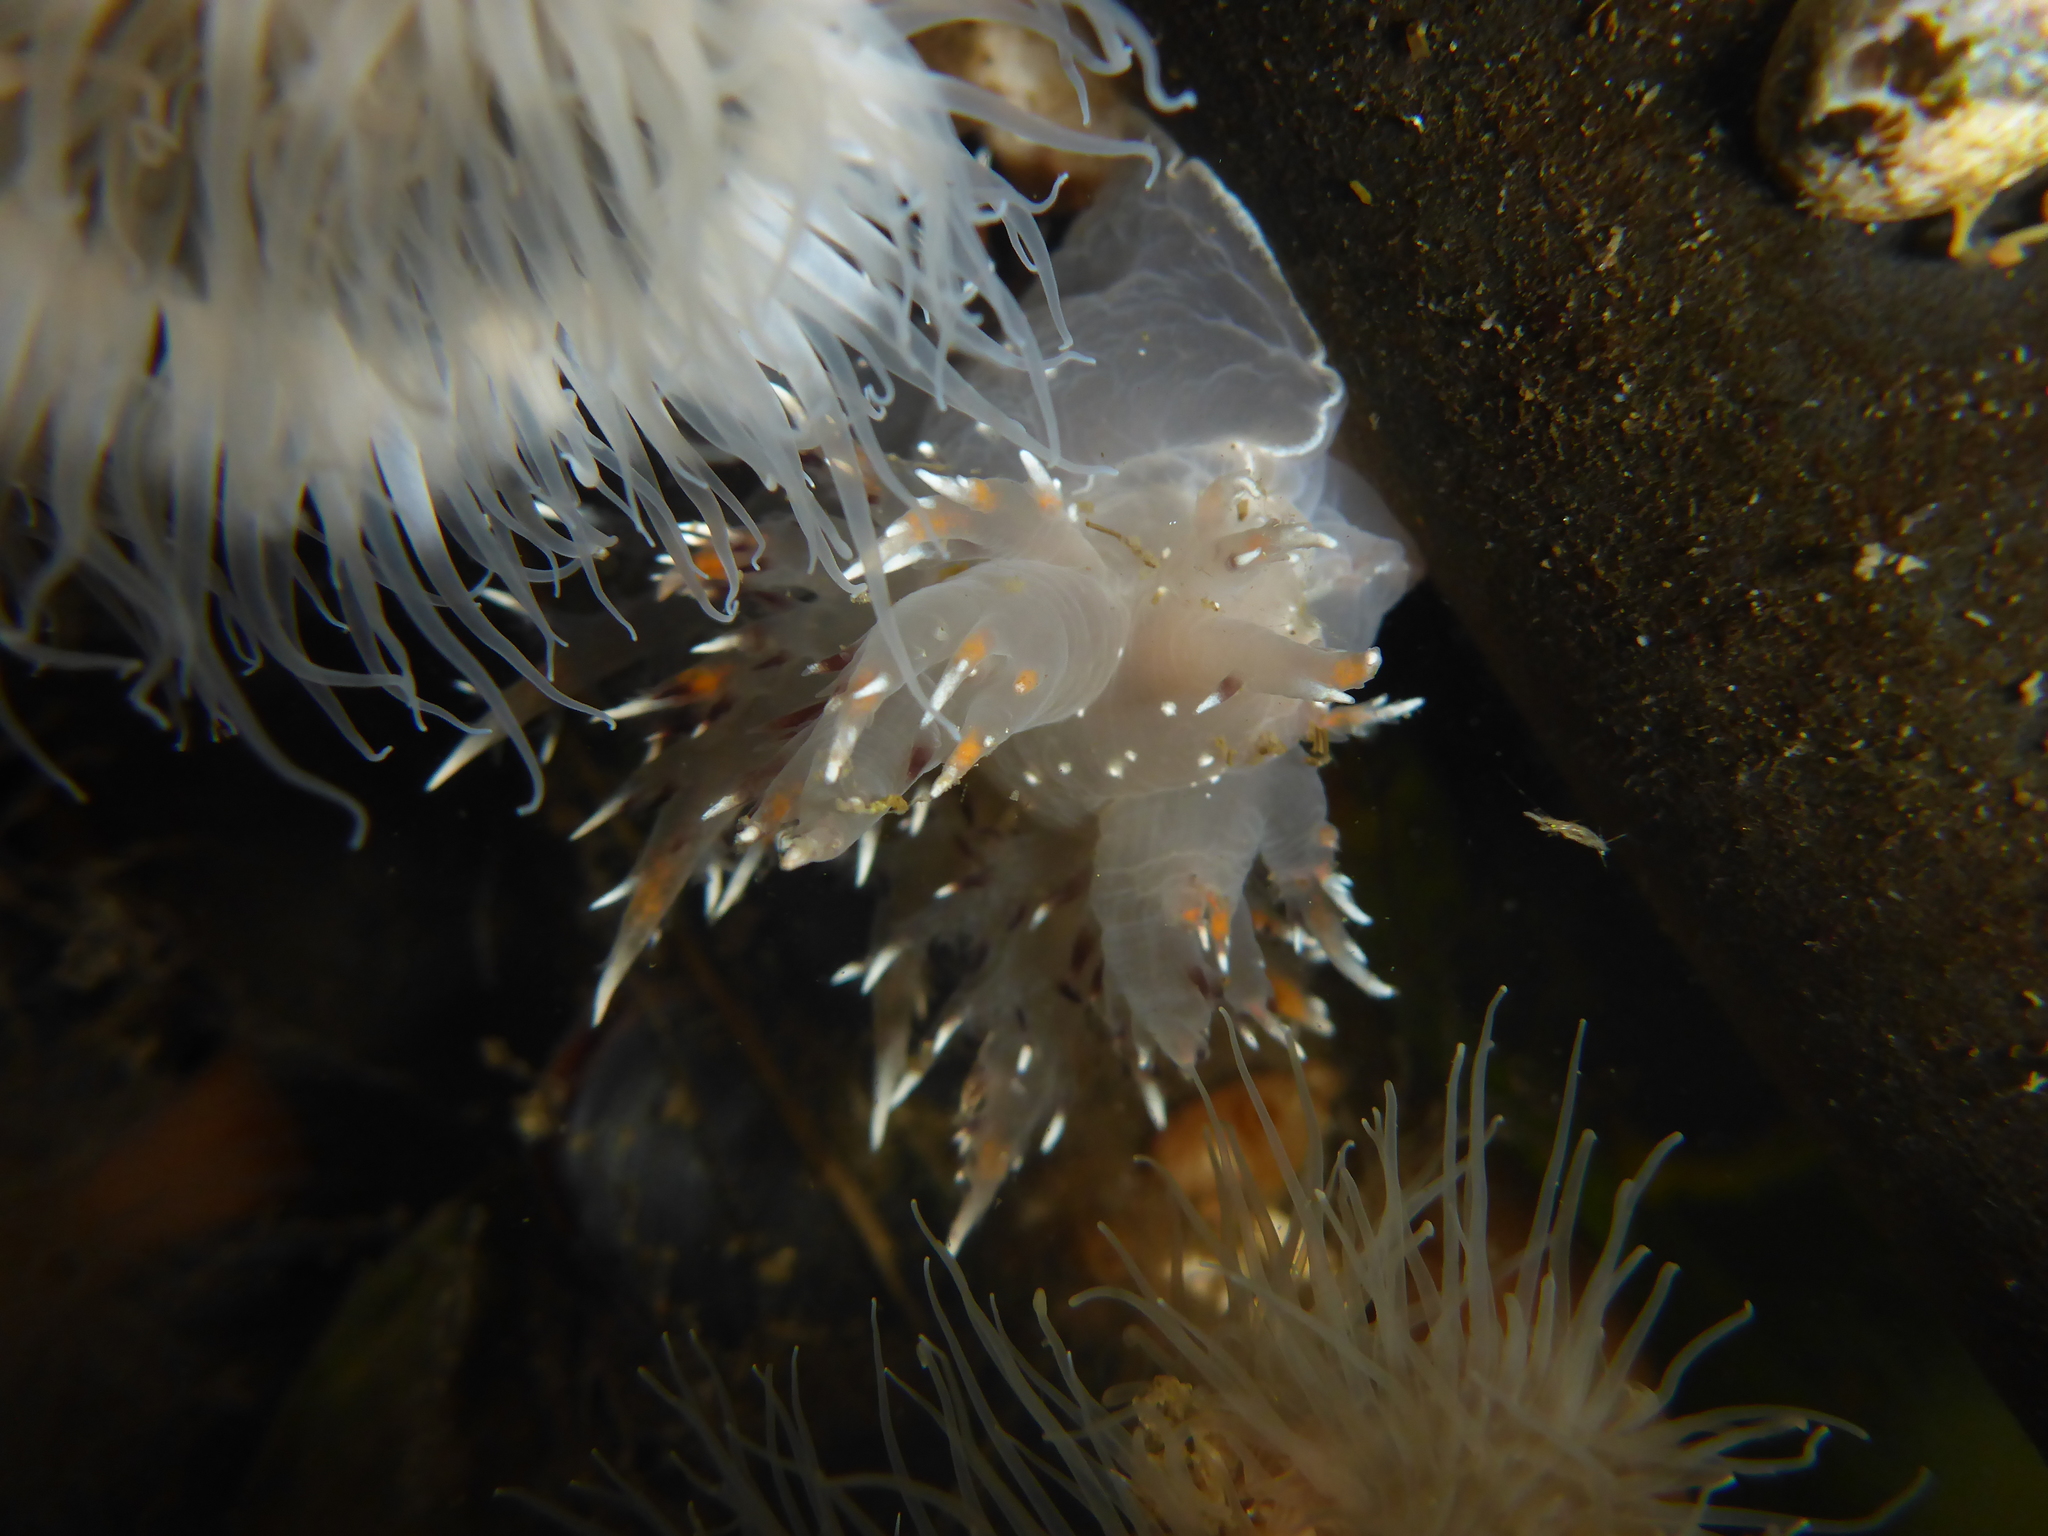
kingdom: Animalia
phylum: Mollusca
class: Gastropoda
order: Nudibranchia
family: Dendronotidae
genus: Dendronotus
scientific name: Dendronotus iris
